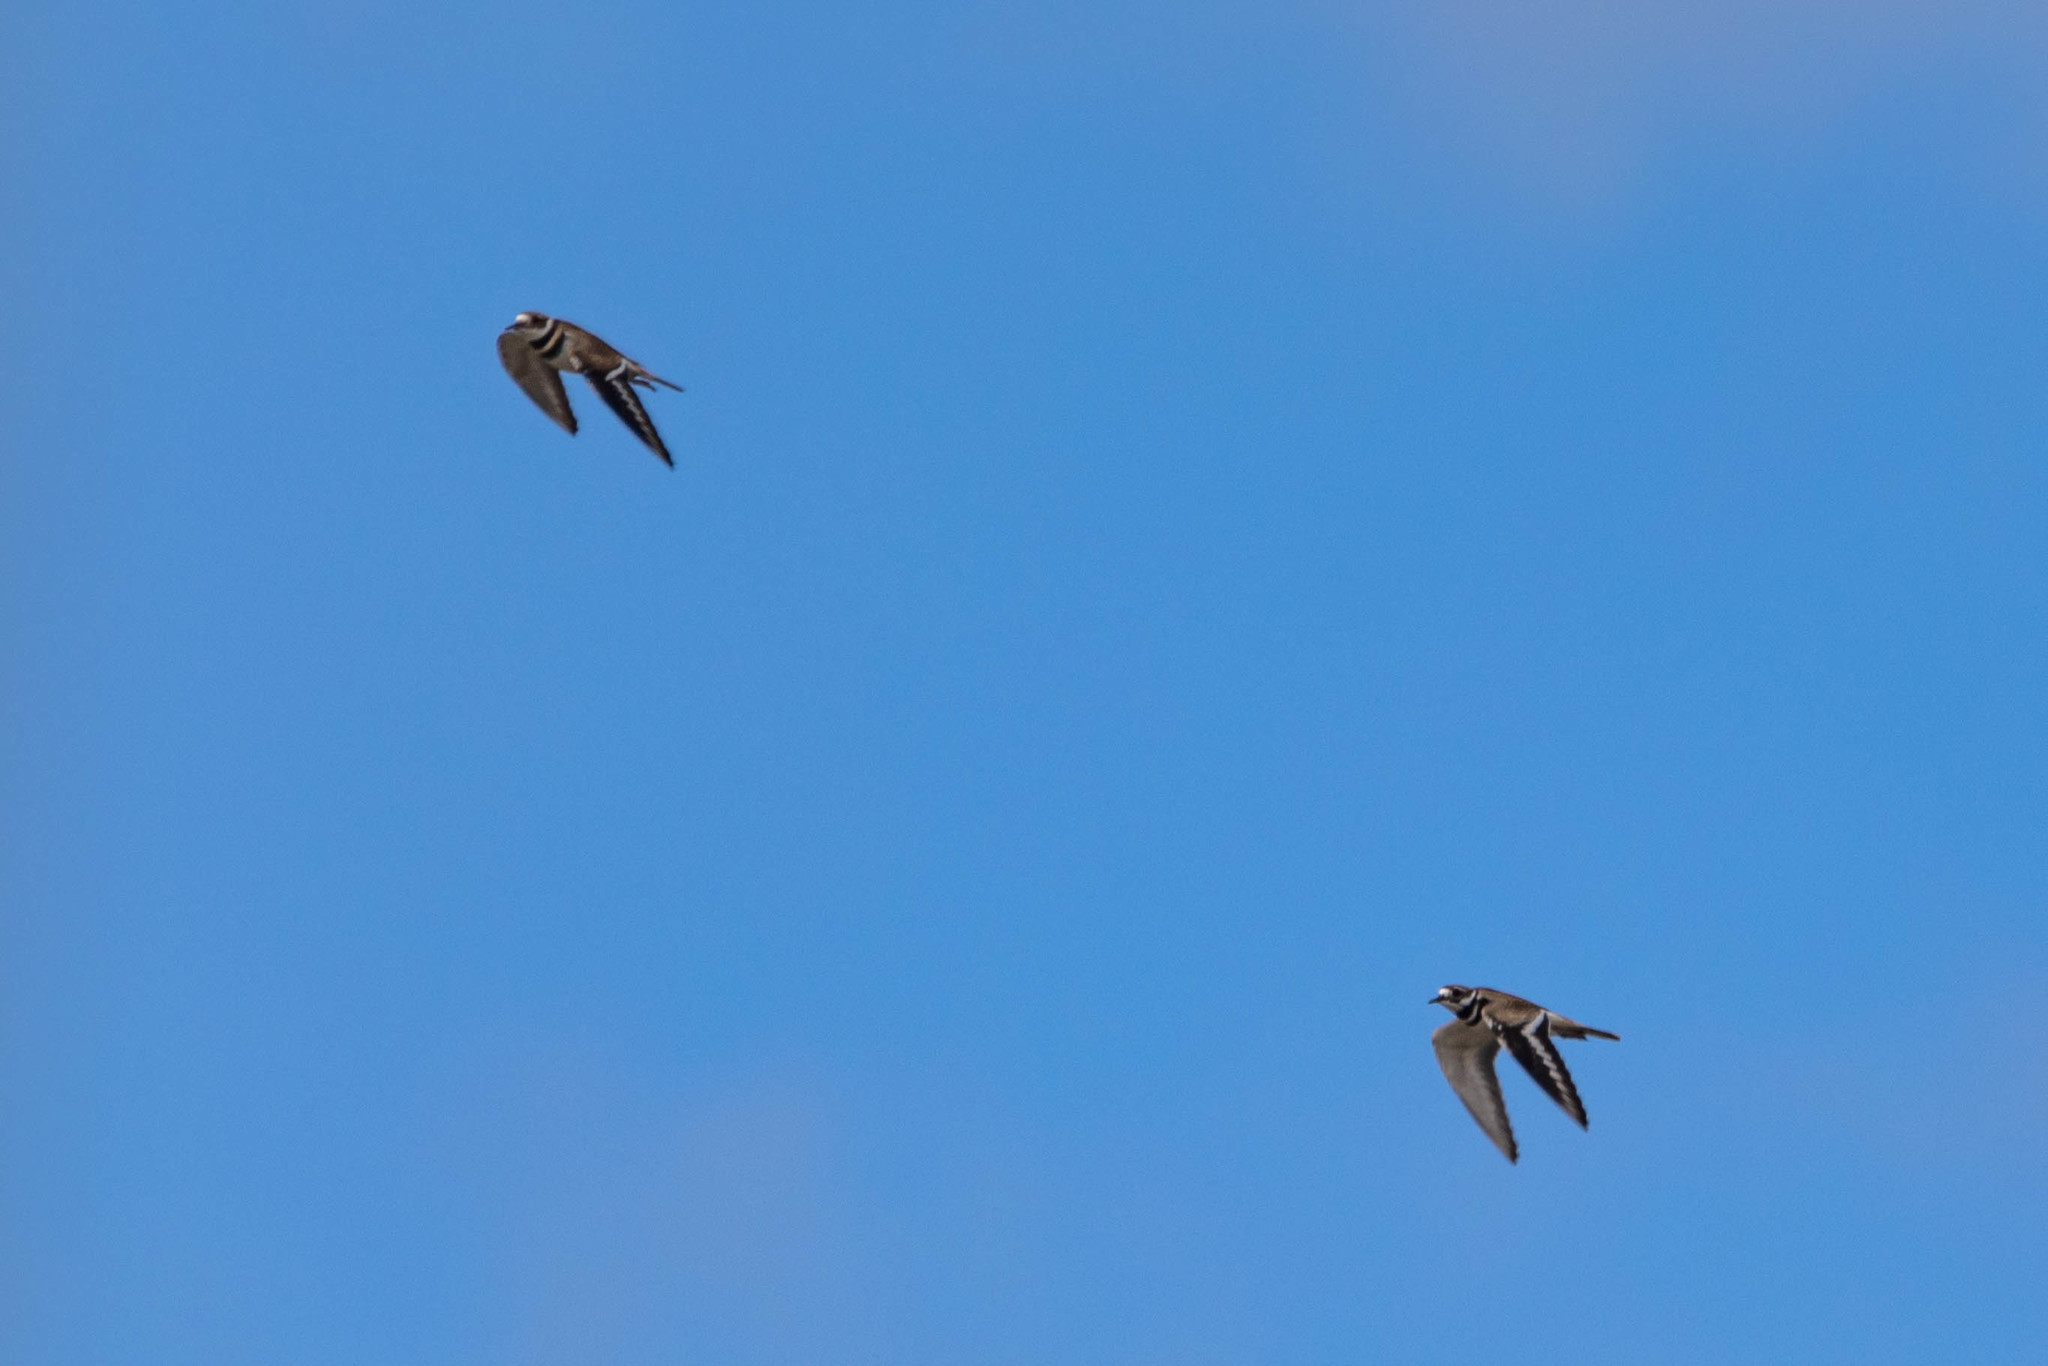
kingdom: Animalia
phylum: Chordata
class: Aves
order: Charadriiformes
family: Charadriidae
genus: Charadrius
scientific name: Charadrius vociferus
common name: Killdeer
